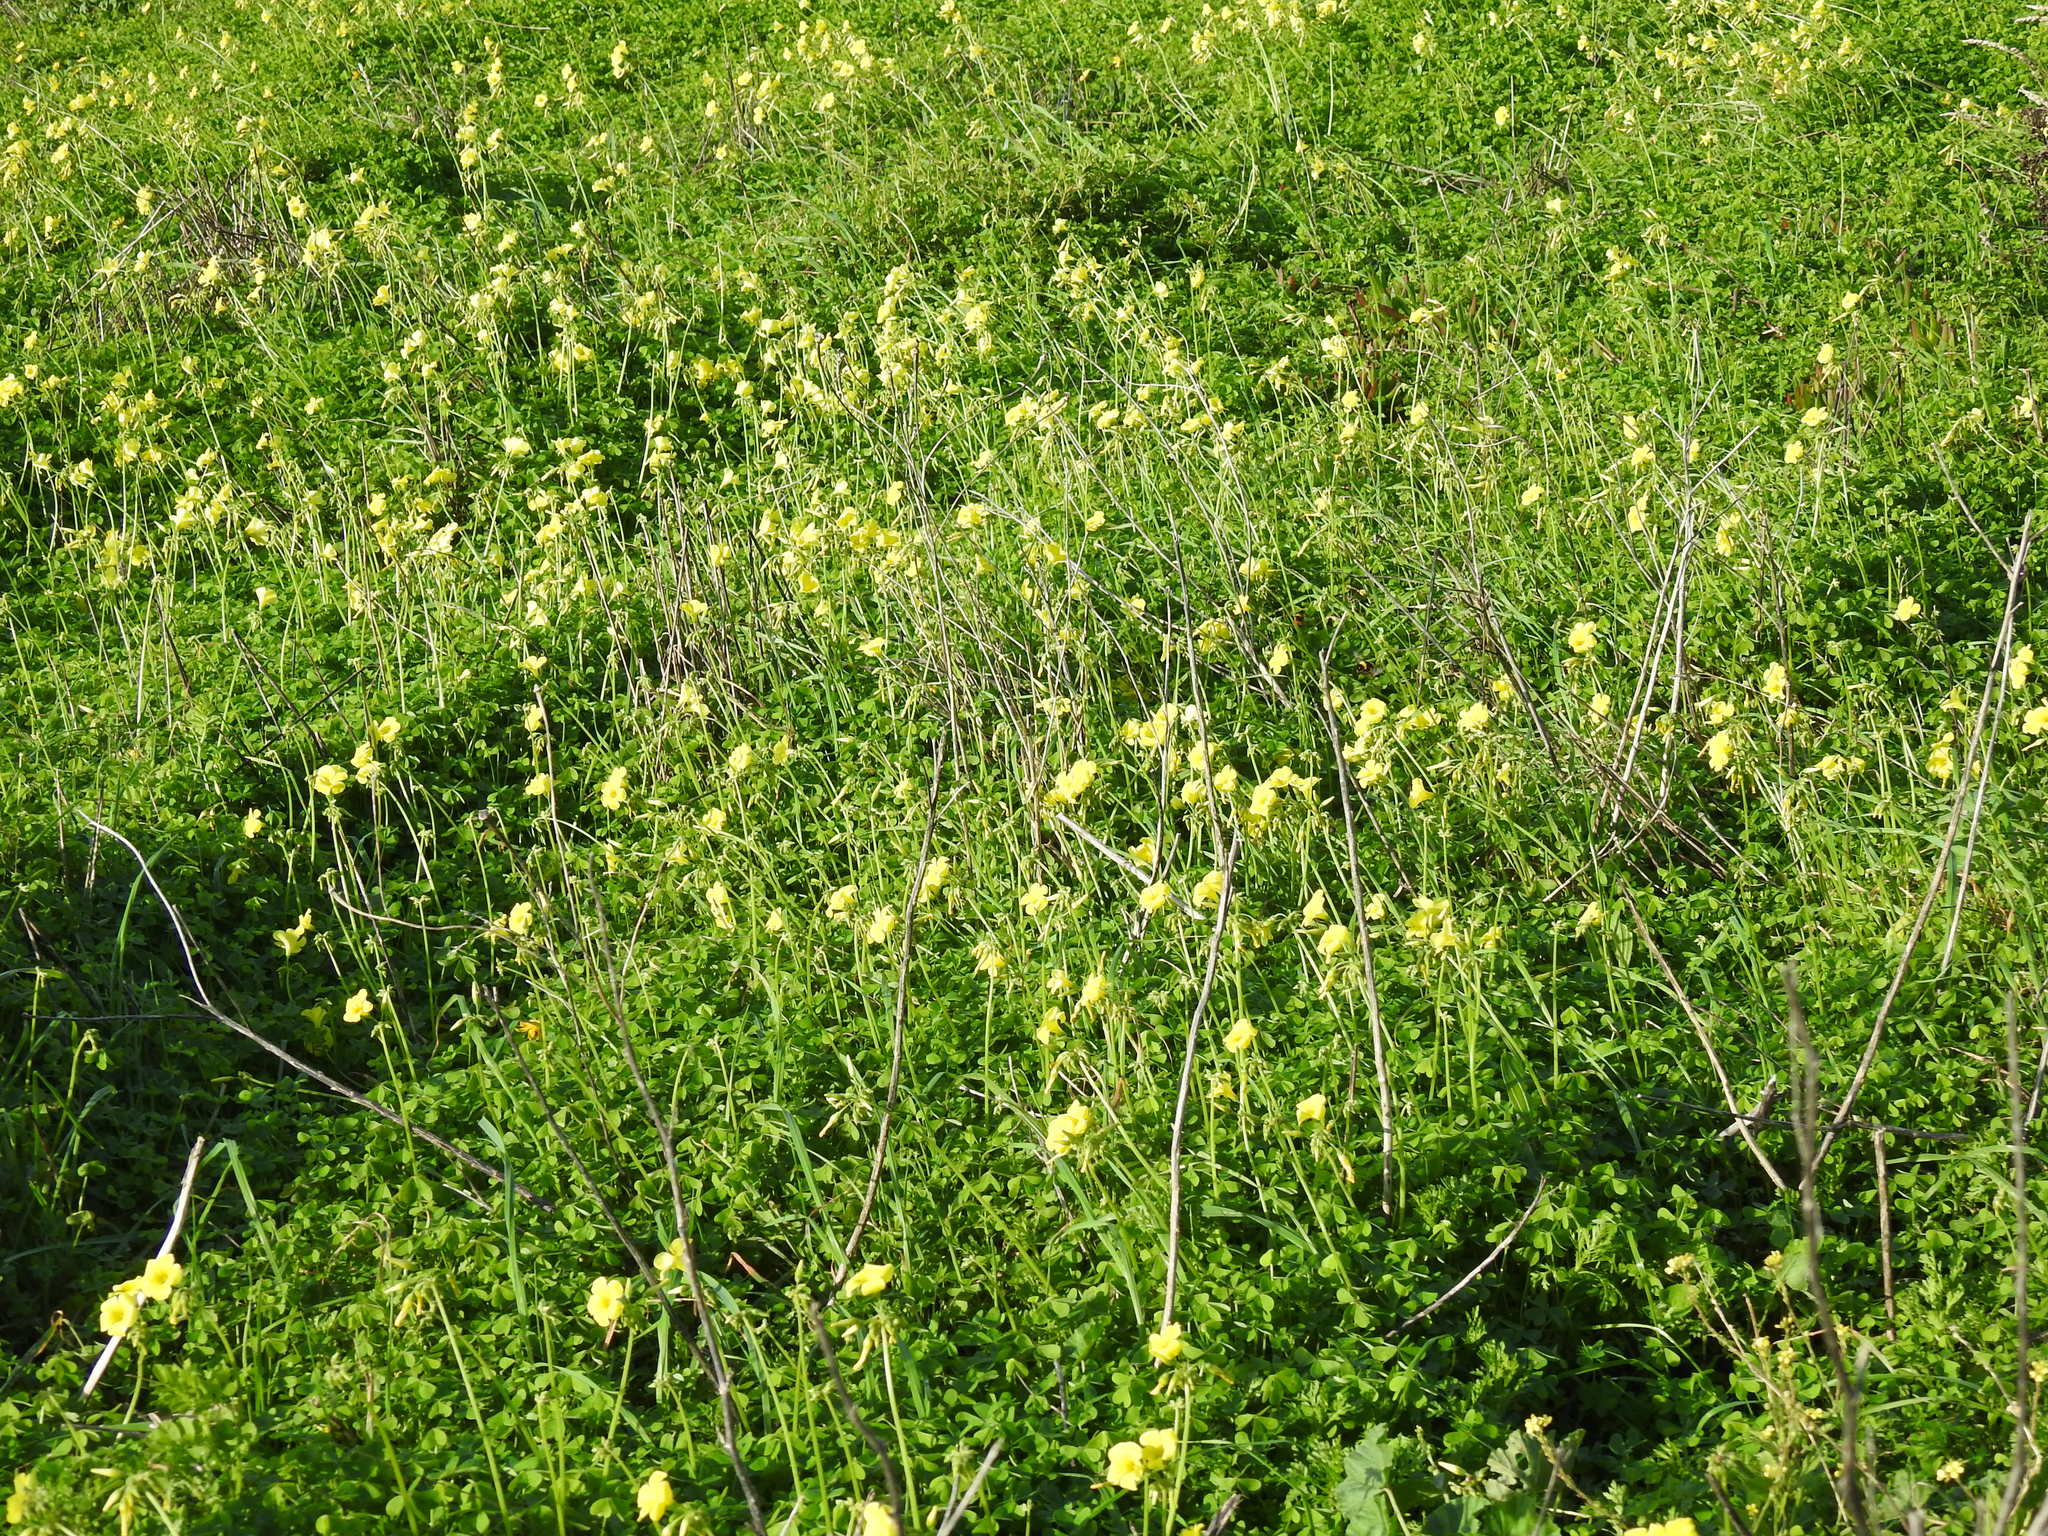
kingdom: Plantae
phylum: Tracheophyta
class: Magnoliopsida
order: Oxalidales
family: Oxalidaceae
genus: Oxalis
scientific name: Oxalis pes-caprae
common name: Bermuda-buttercup
